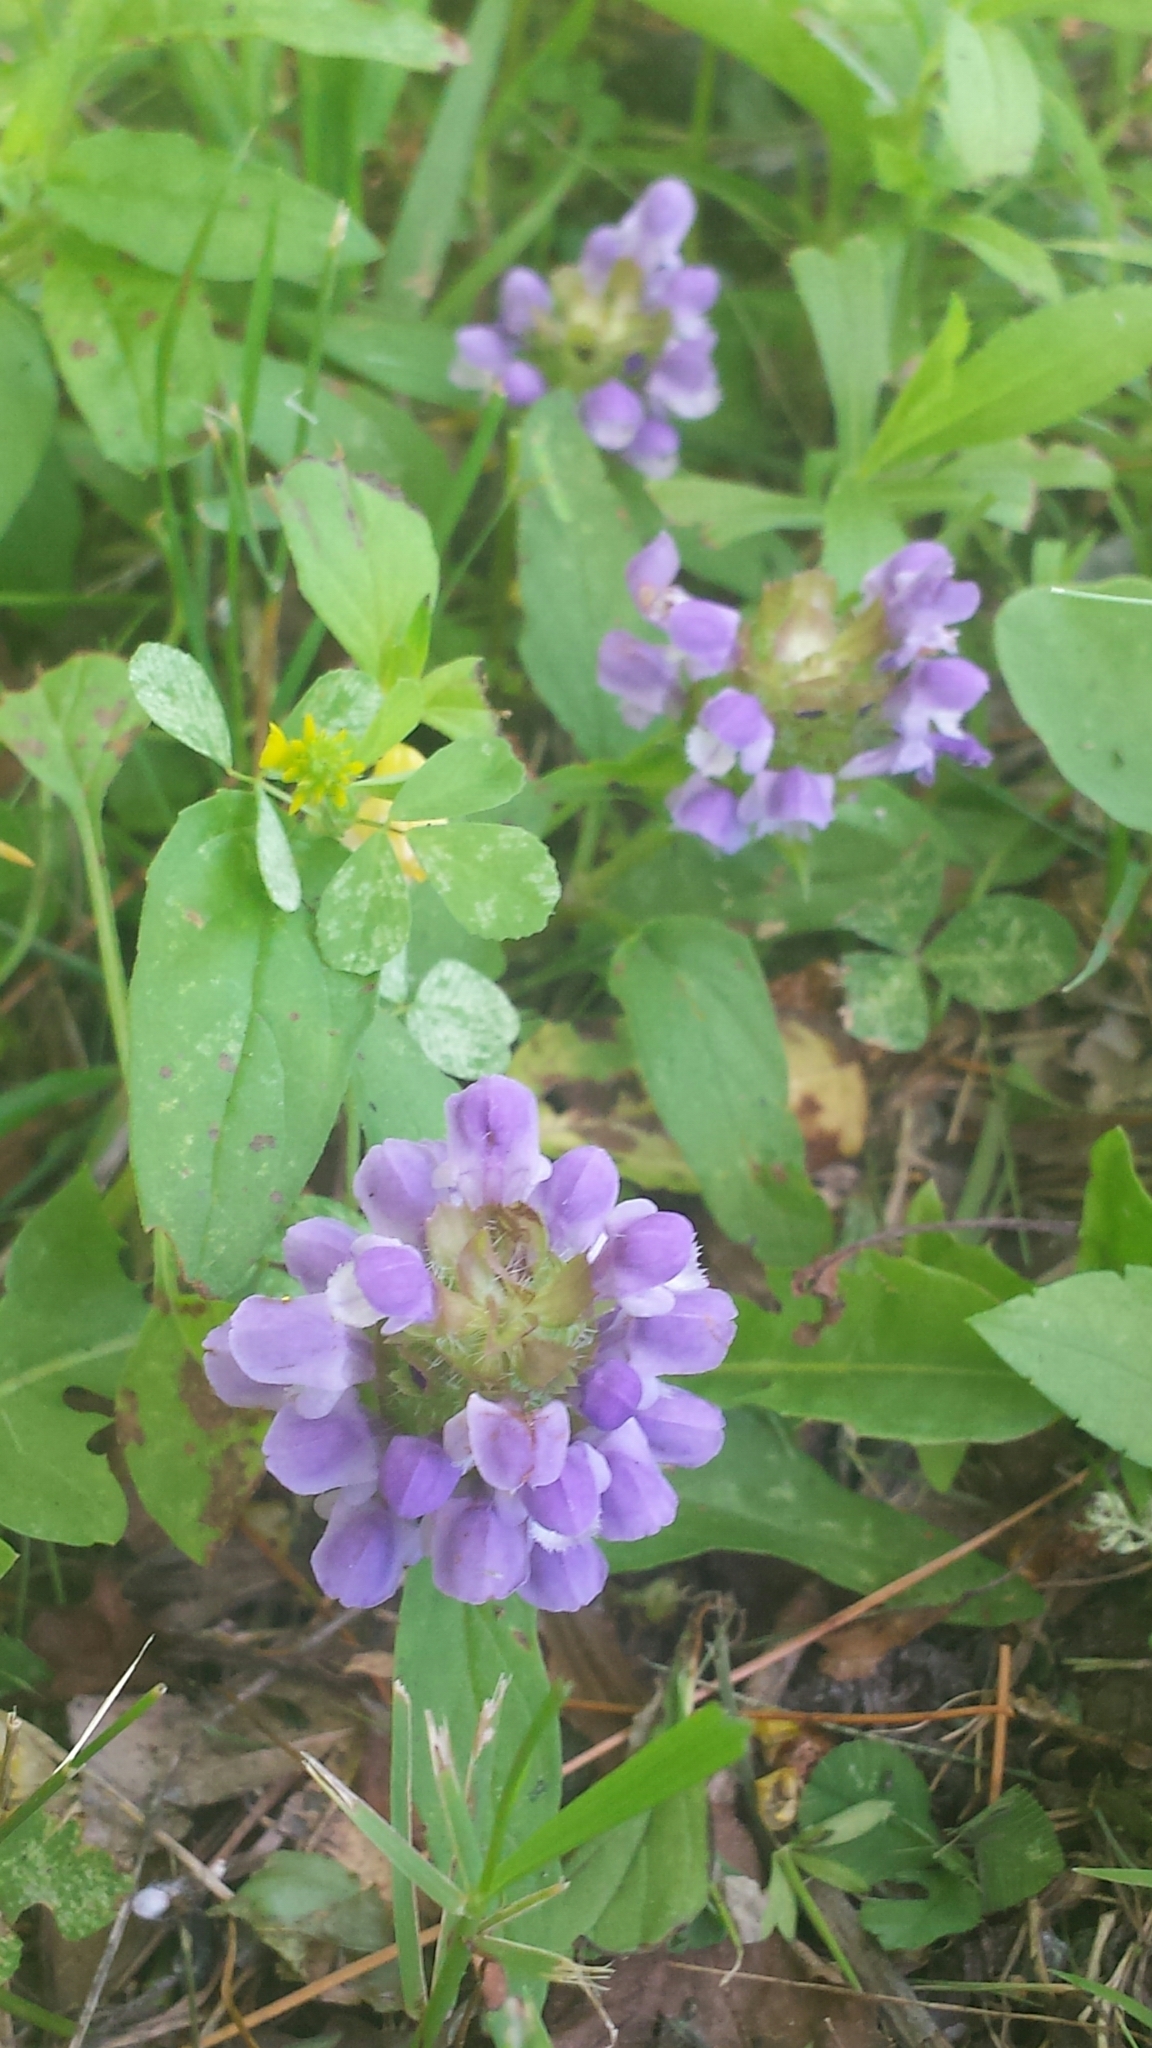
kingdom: Plantae
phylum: Tracheophyta
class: Magnoliopsida
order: Lamiales
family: Lamiaceae
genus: Prunella
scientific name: Prunella vulgaris
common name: Heal-all
